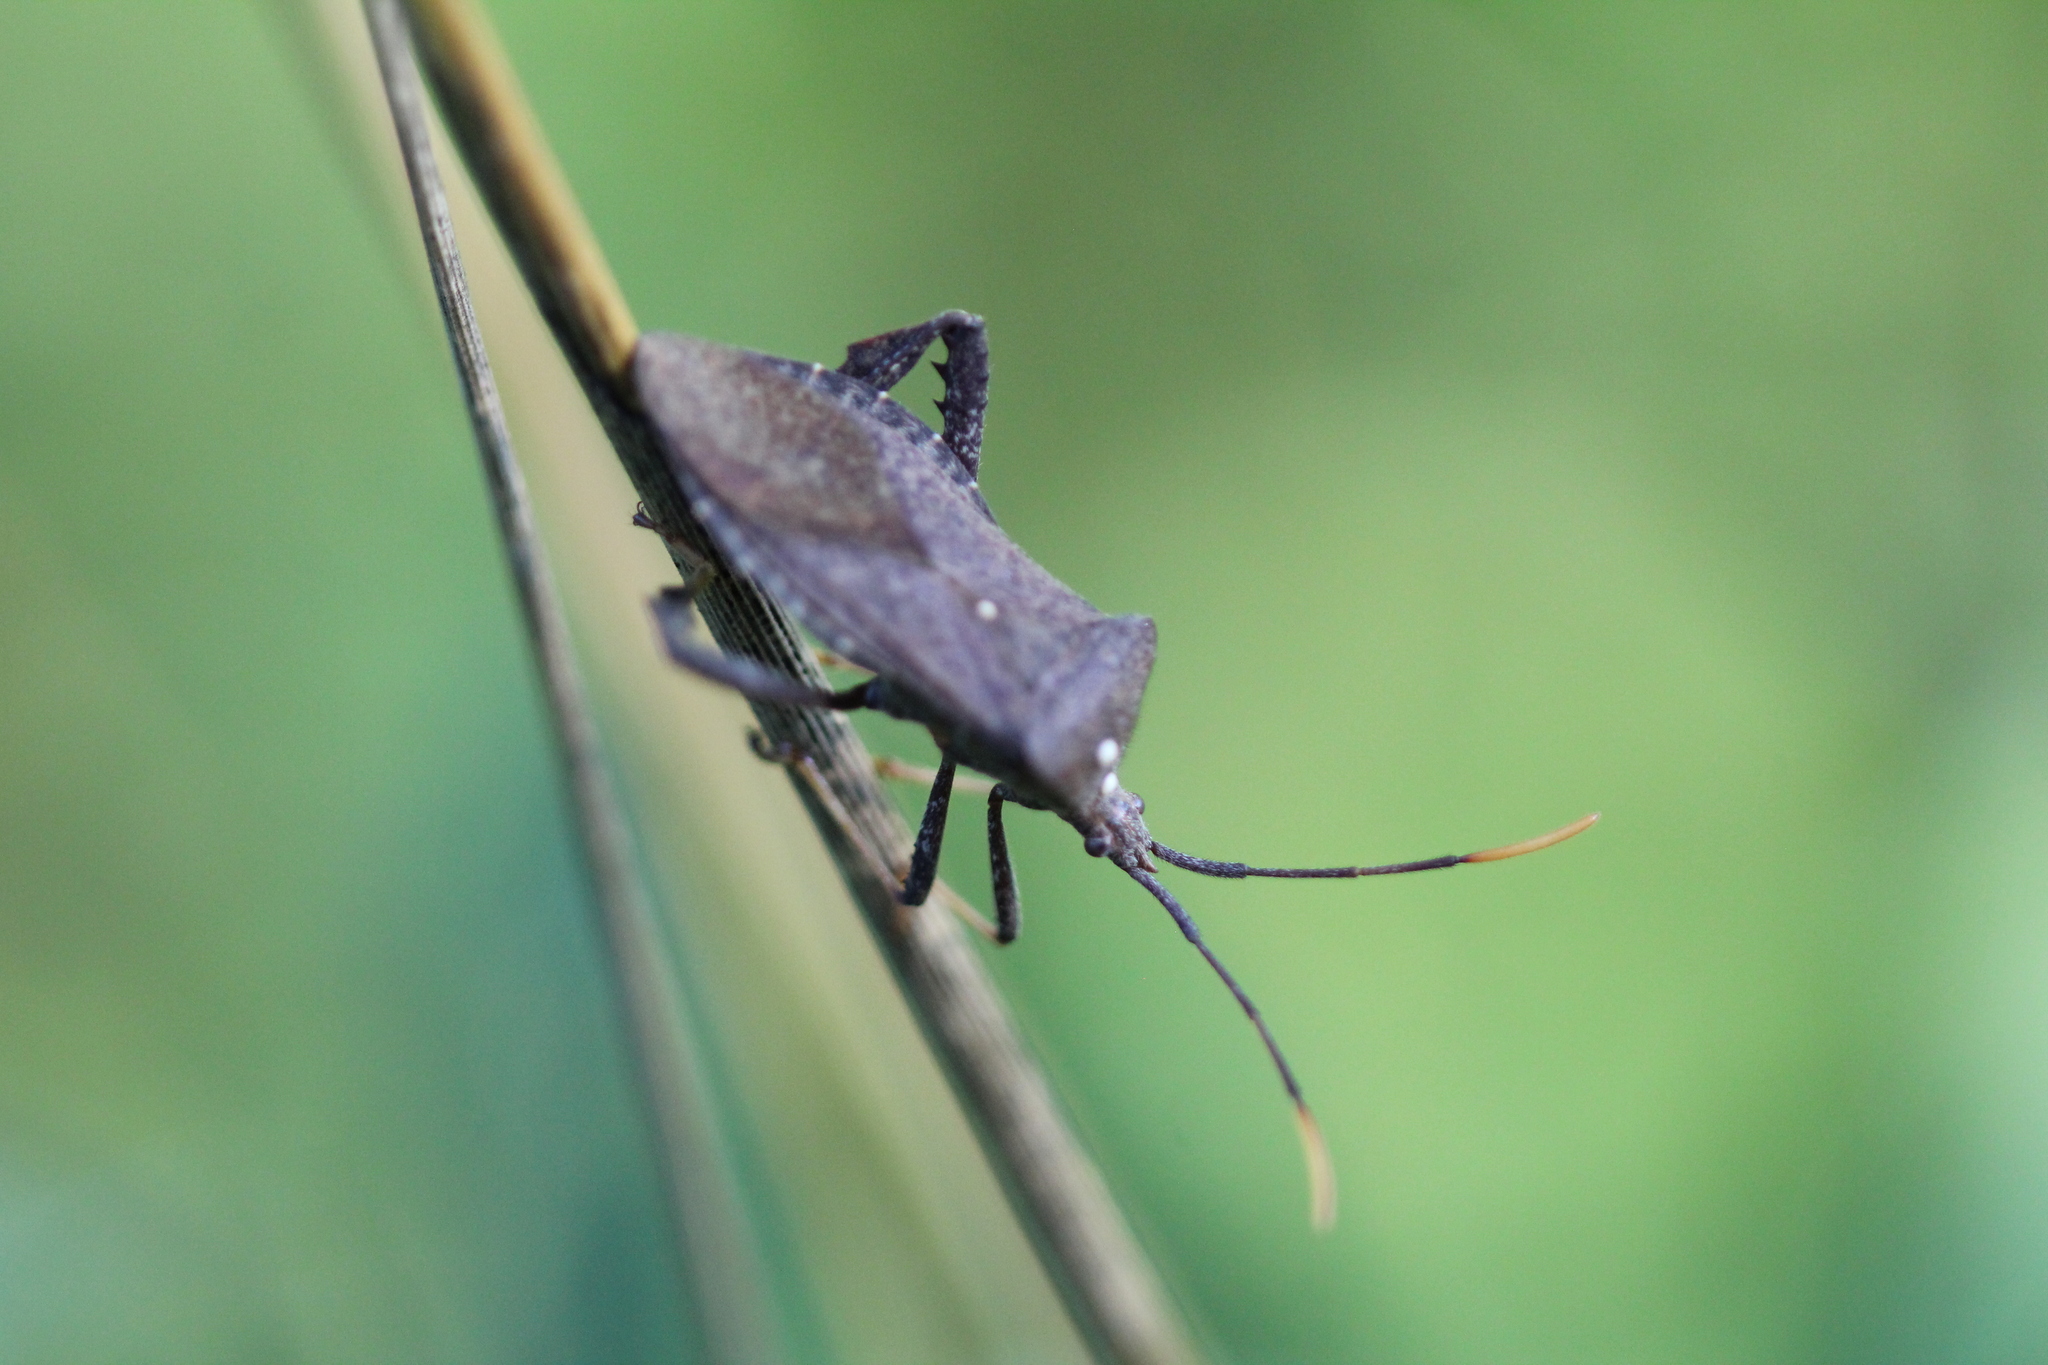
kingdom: Animalia
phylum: Arthropoda
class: Insecta
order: Hemiptera
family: Coreidae
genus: Acanthocephala
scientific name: Acanthocephala terminalis
